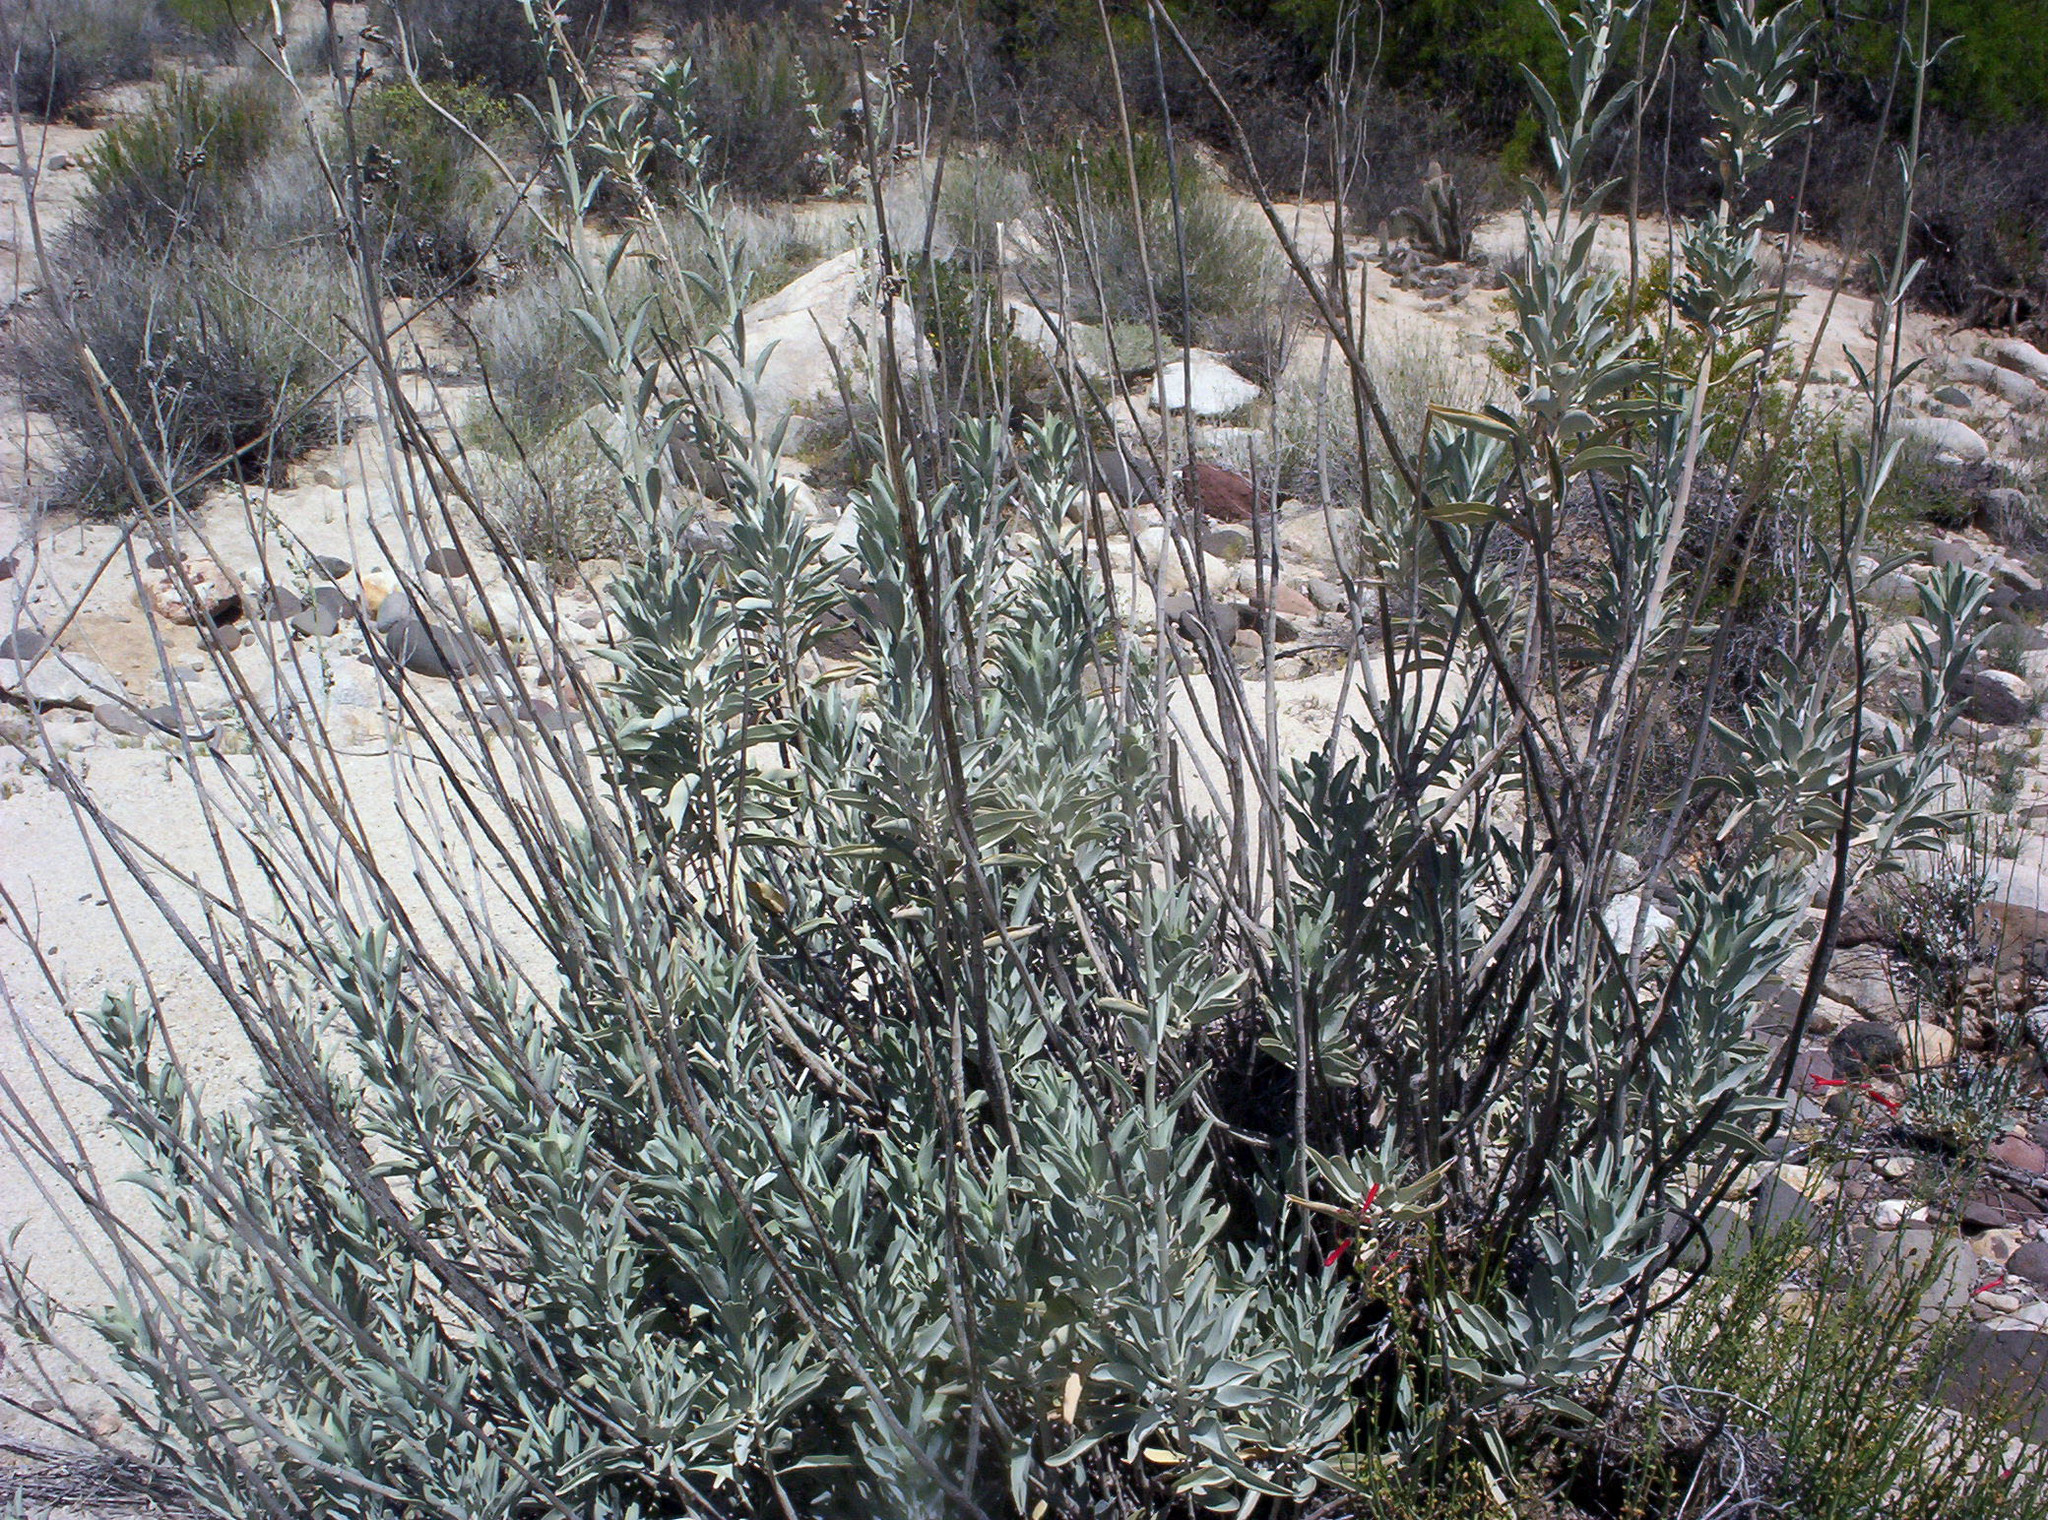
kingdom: Plantae
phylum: Tracheophyta
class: Magnoliopsida
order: Lamiales
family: Lamiaceae
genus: Salvia
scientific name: Salvia apiana
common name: White sage
